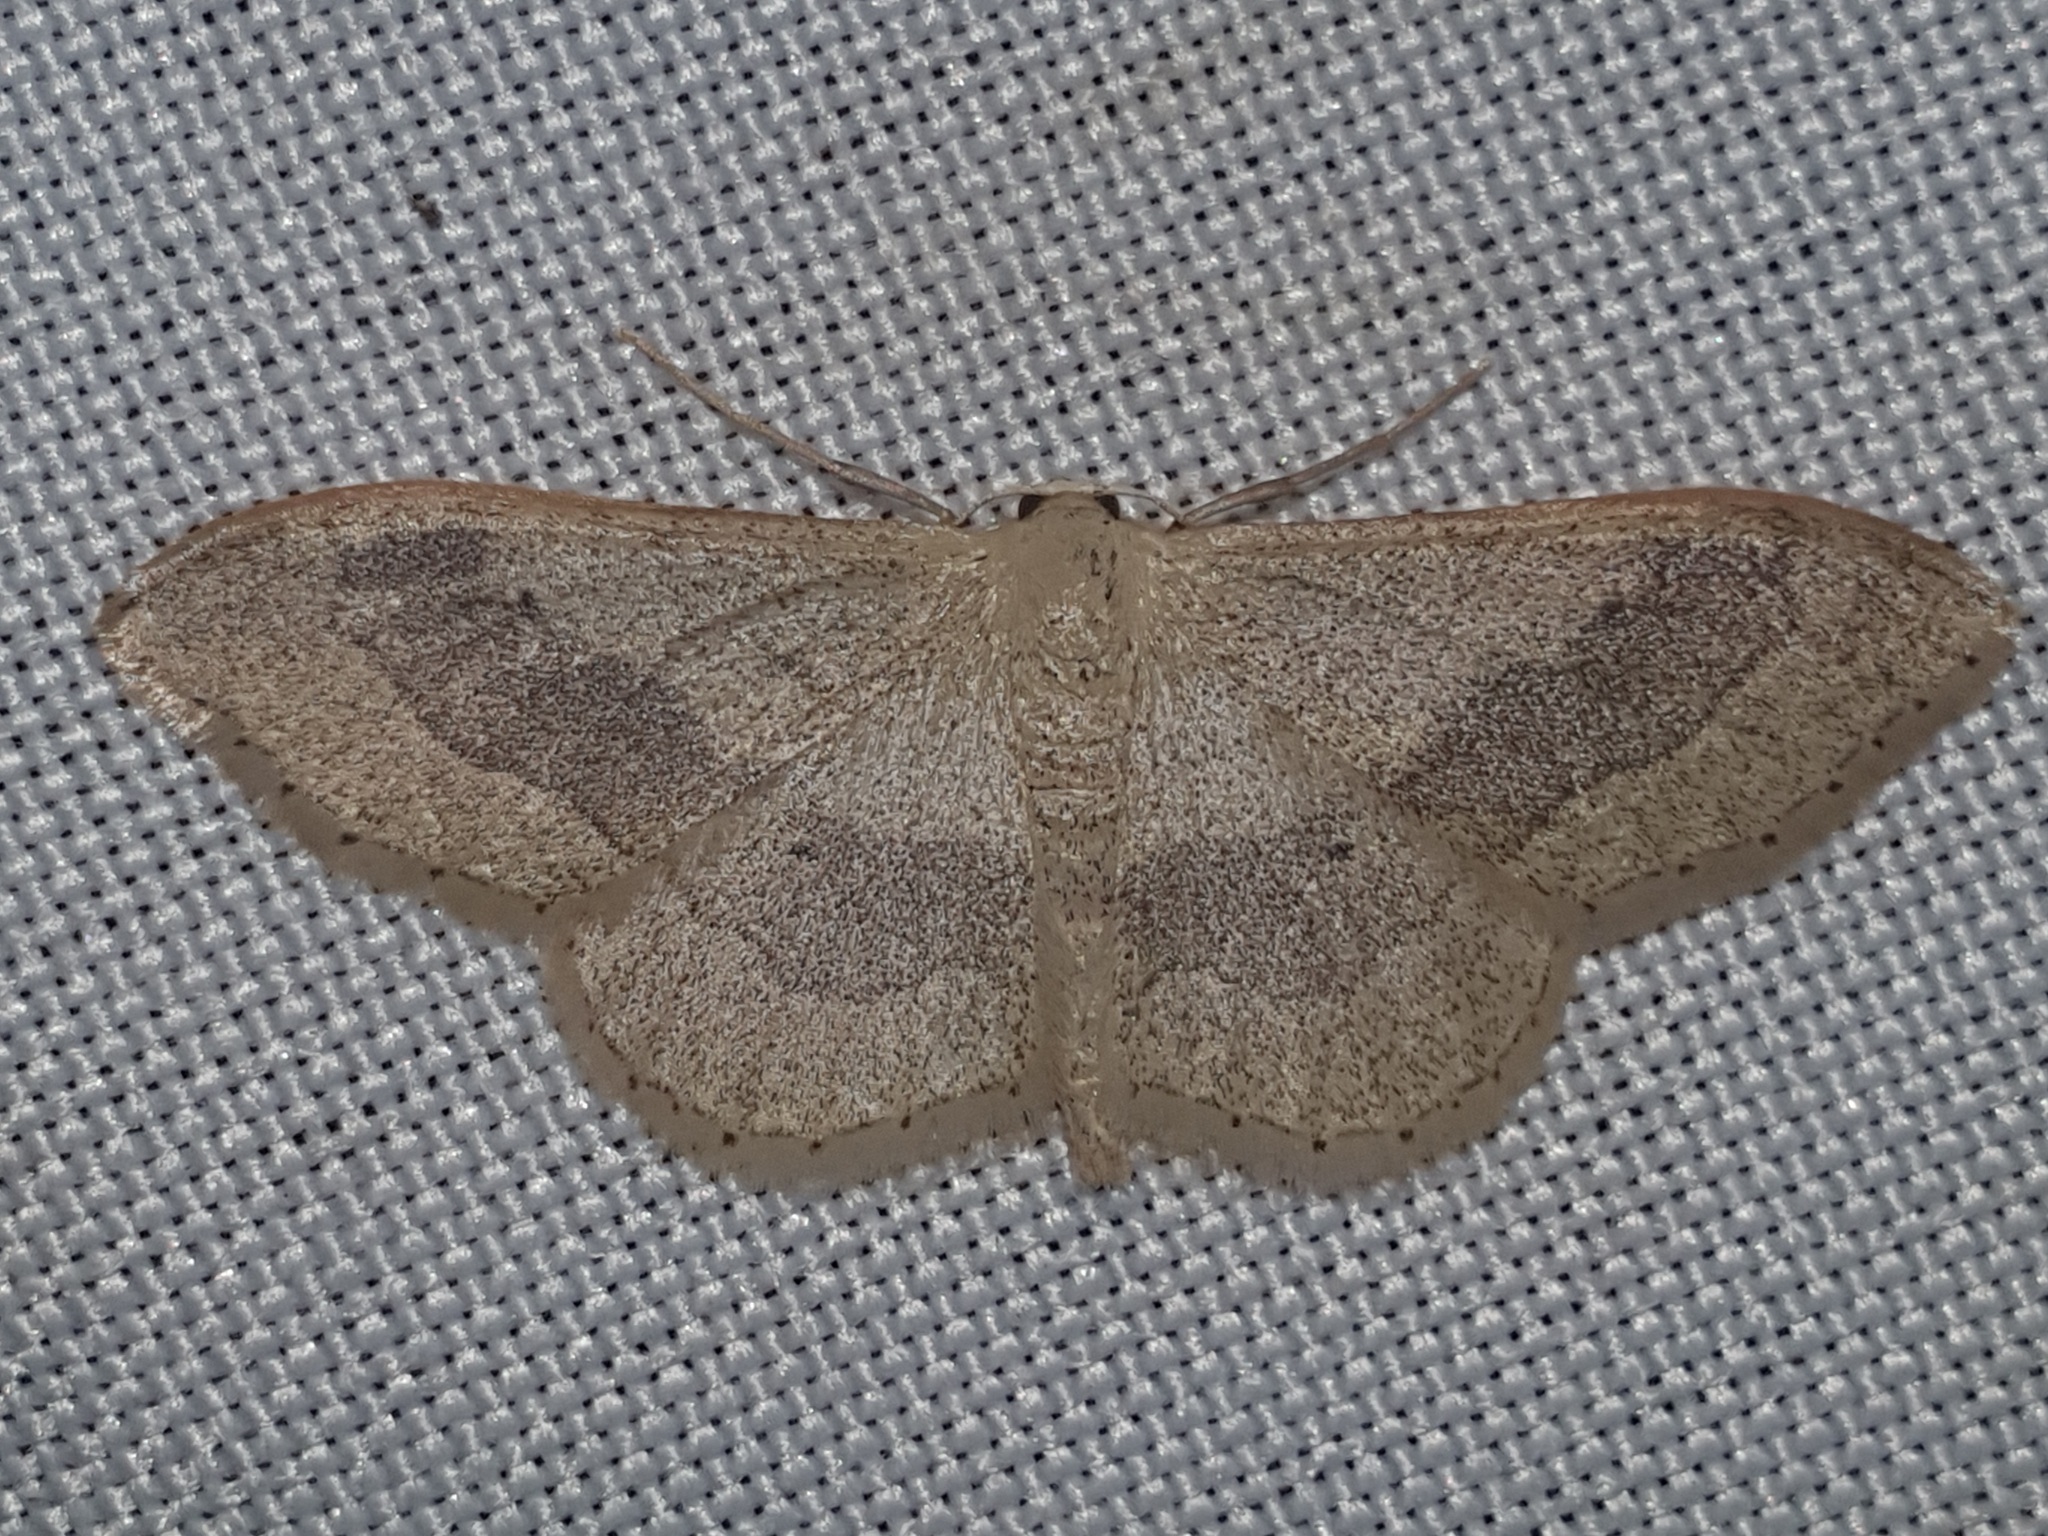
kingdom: Animalia
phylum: Arthropoda
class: Insecta
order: Lepidoptera
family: Geometridae
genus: Idaea
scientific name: Idaea aversata
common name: Riband wave
